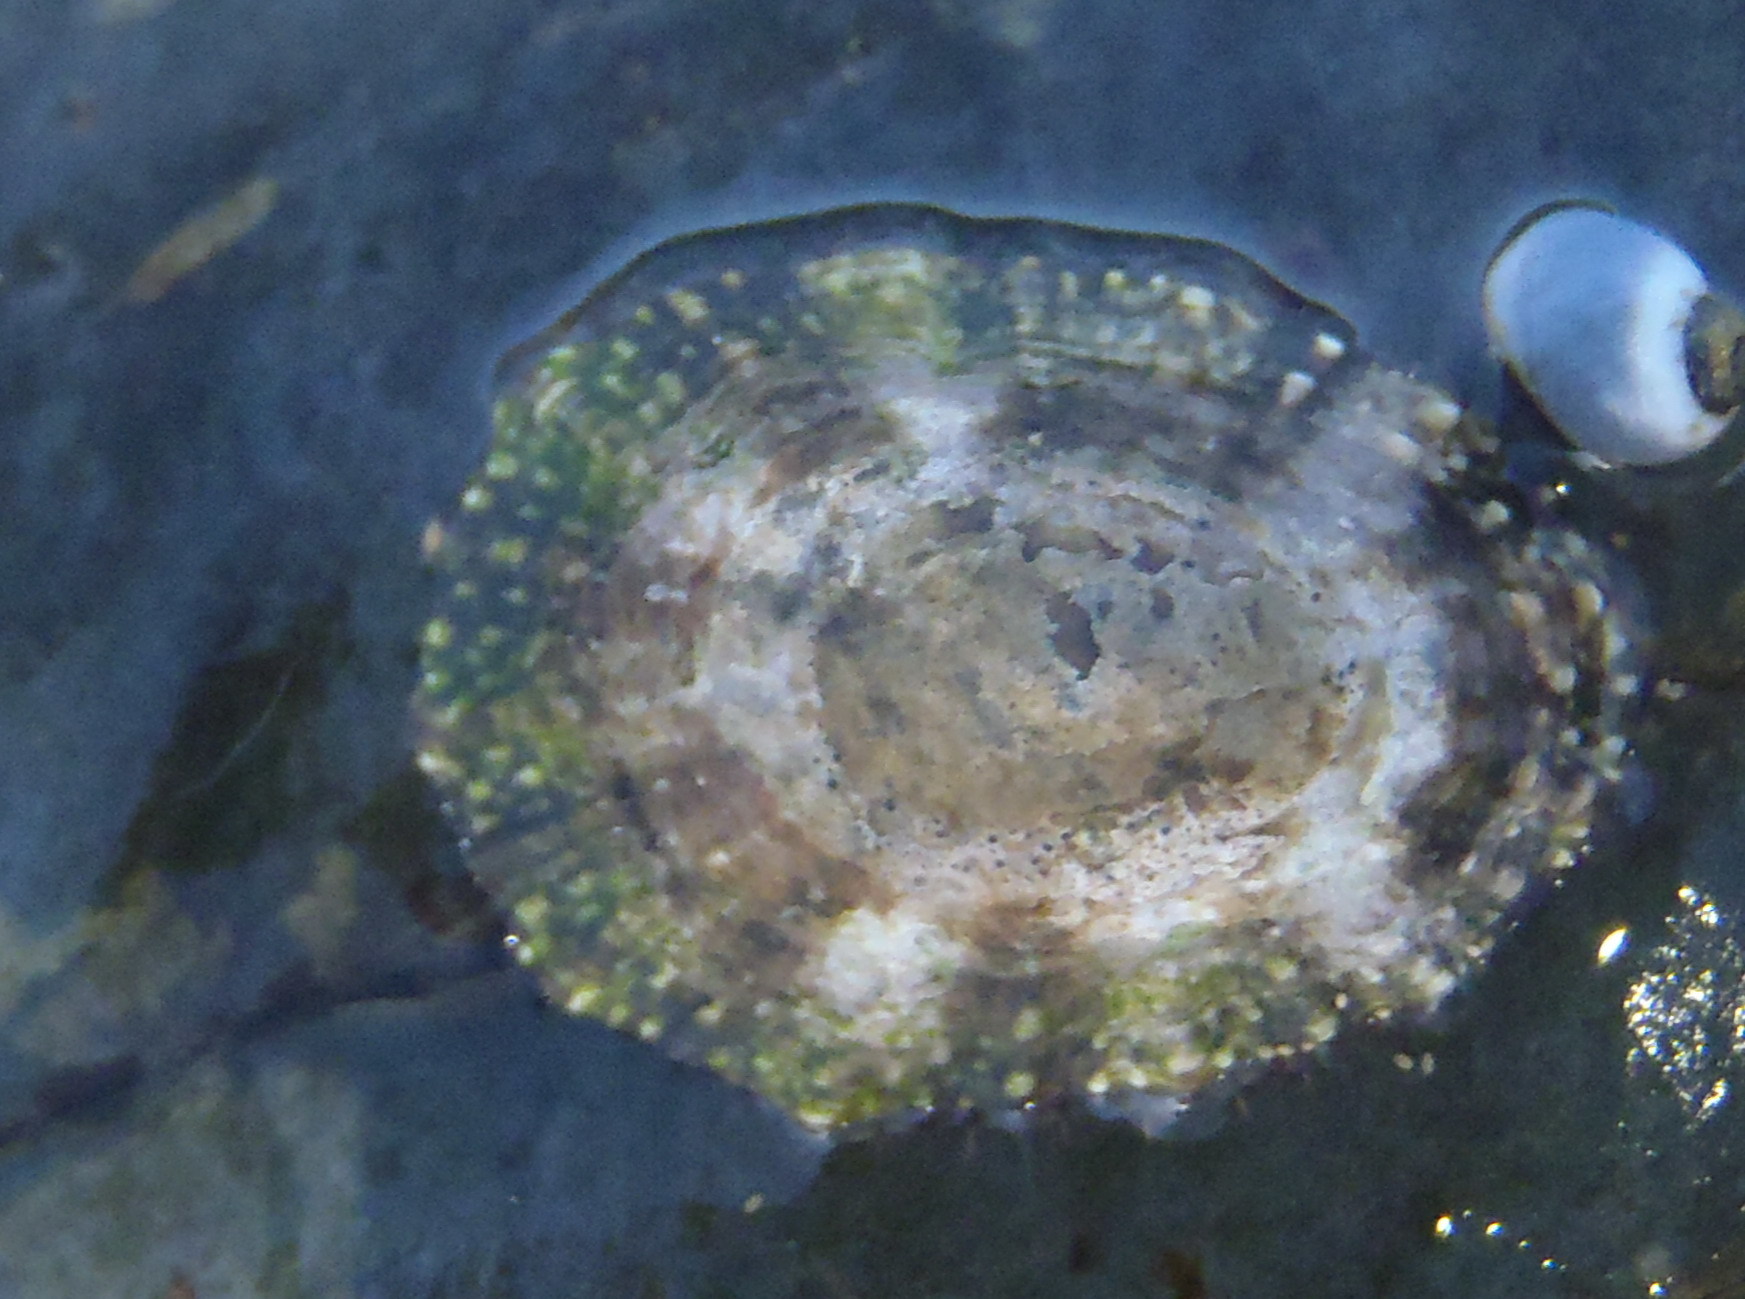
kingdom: Animalia
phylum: Mollusca
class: Gastropoda
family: Patellidae
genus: Scutellastra
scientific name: Scutellastra granularis
